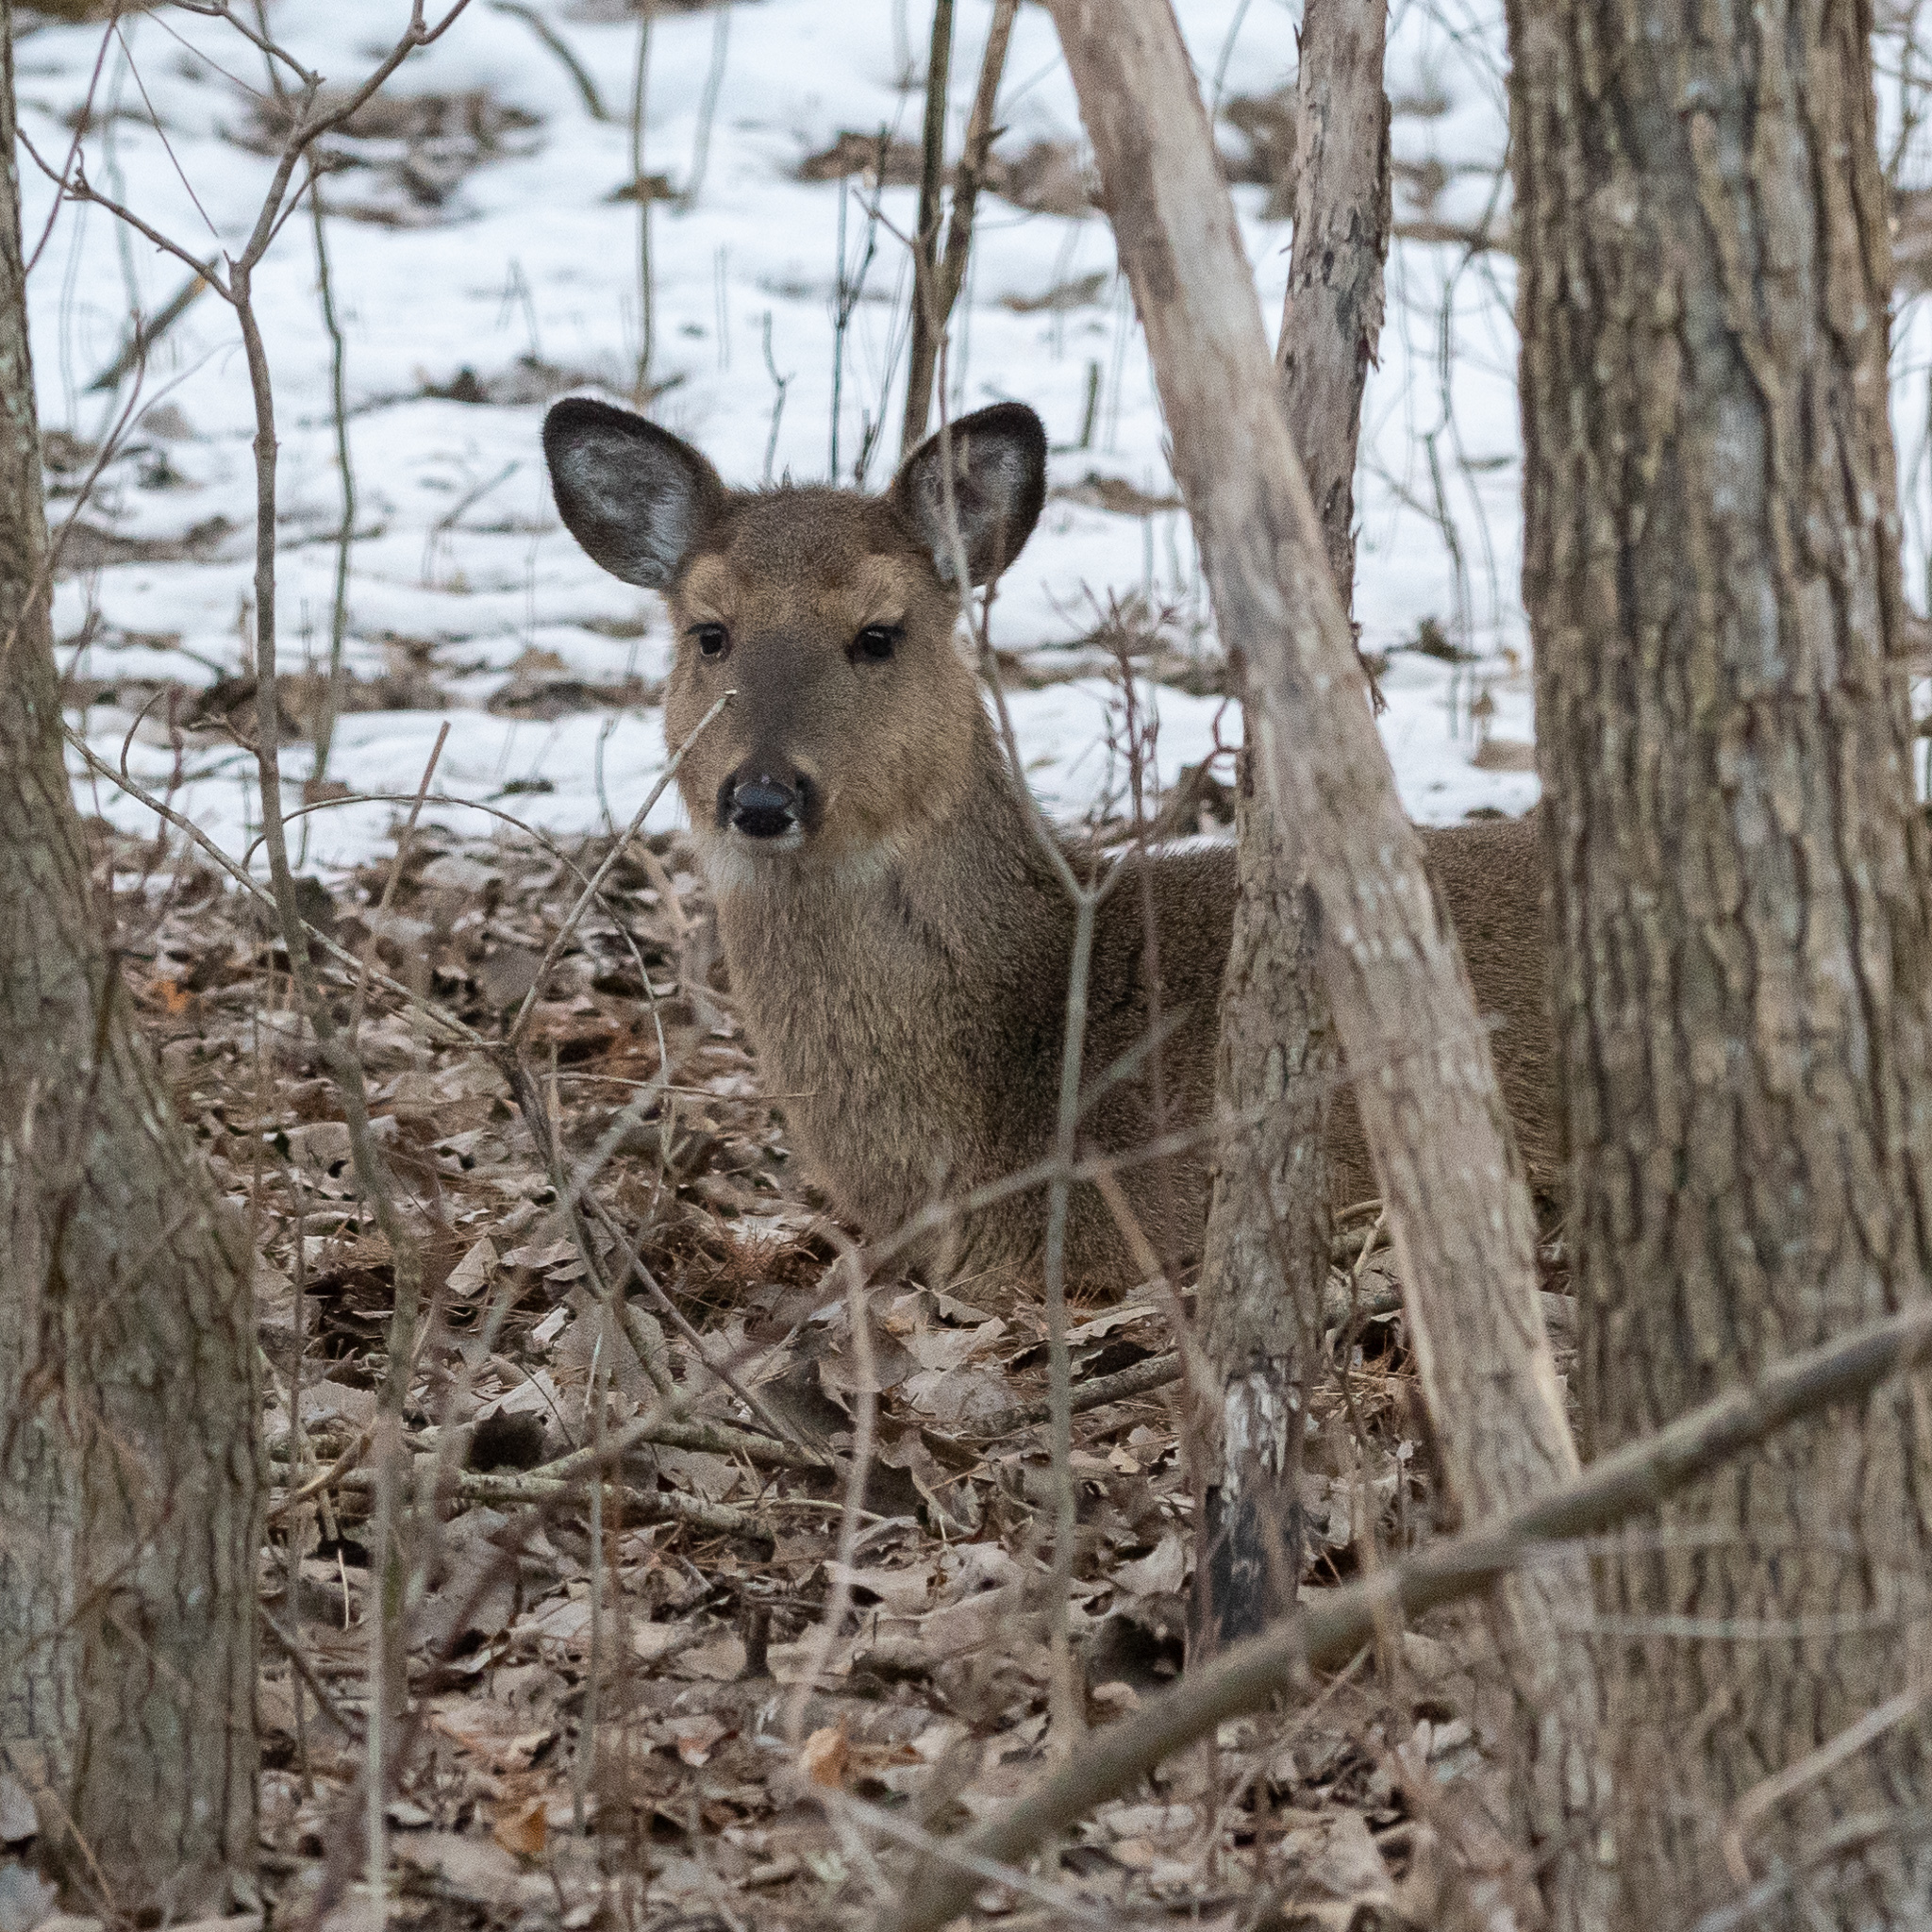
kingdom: Animalia
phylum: Chordata
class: Mammalia
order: Artiodactyla
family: Cervidae
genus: Odocoileus
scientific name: Odocoileus virginianus
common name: White-tailed deer
